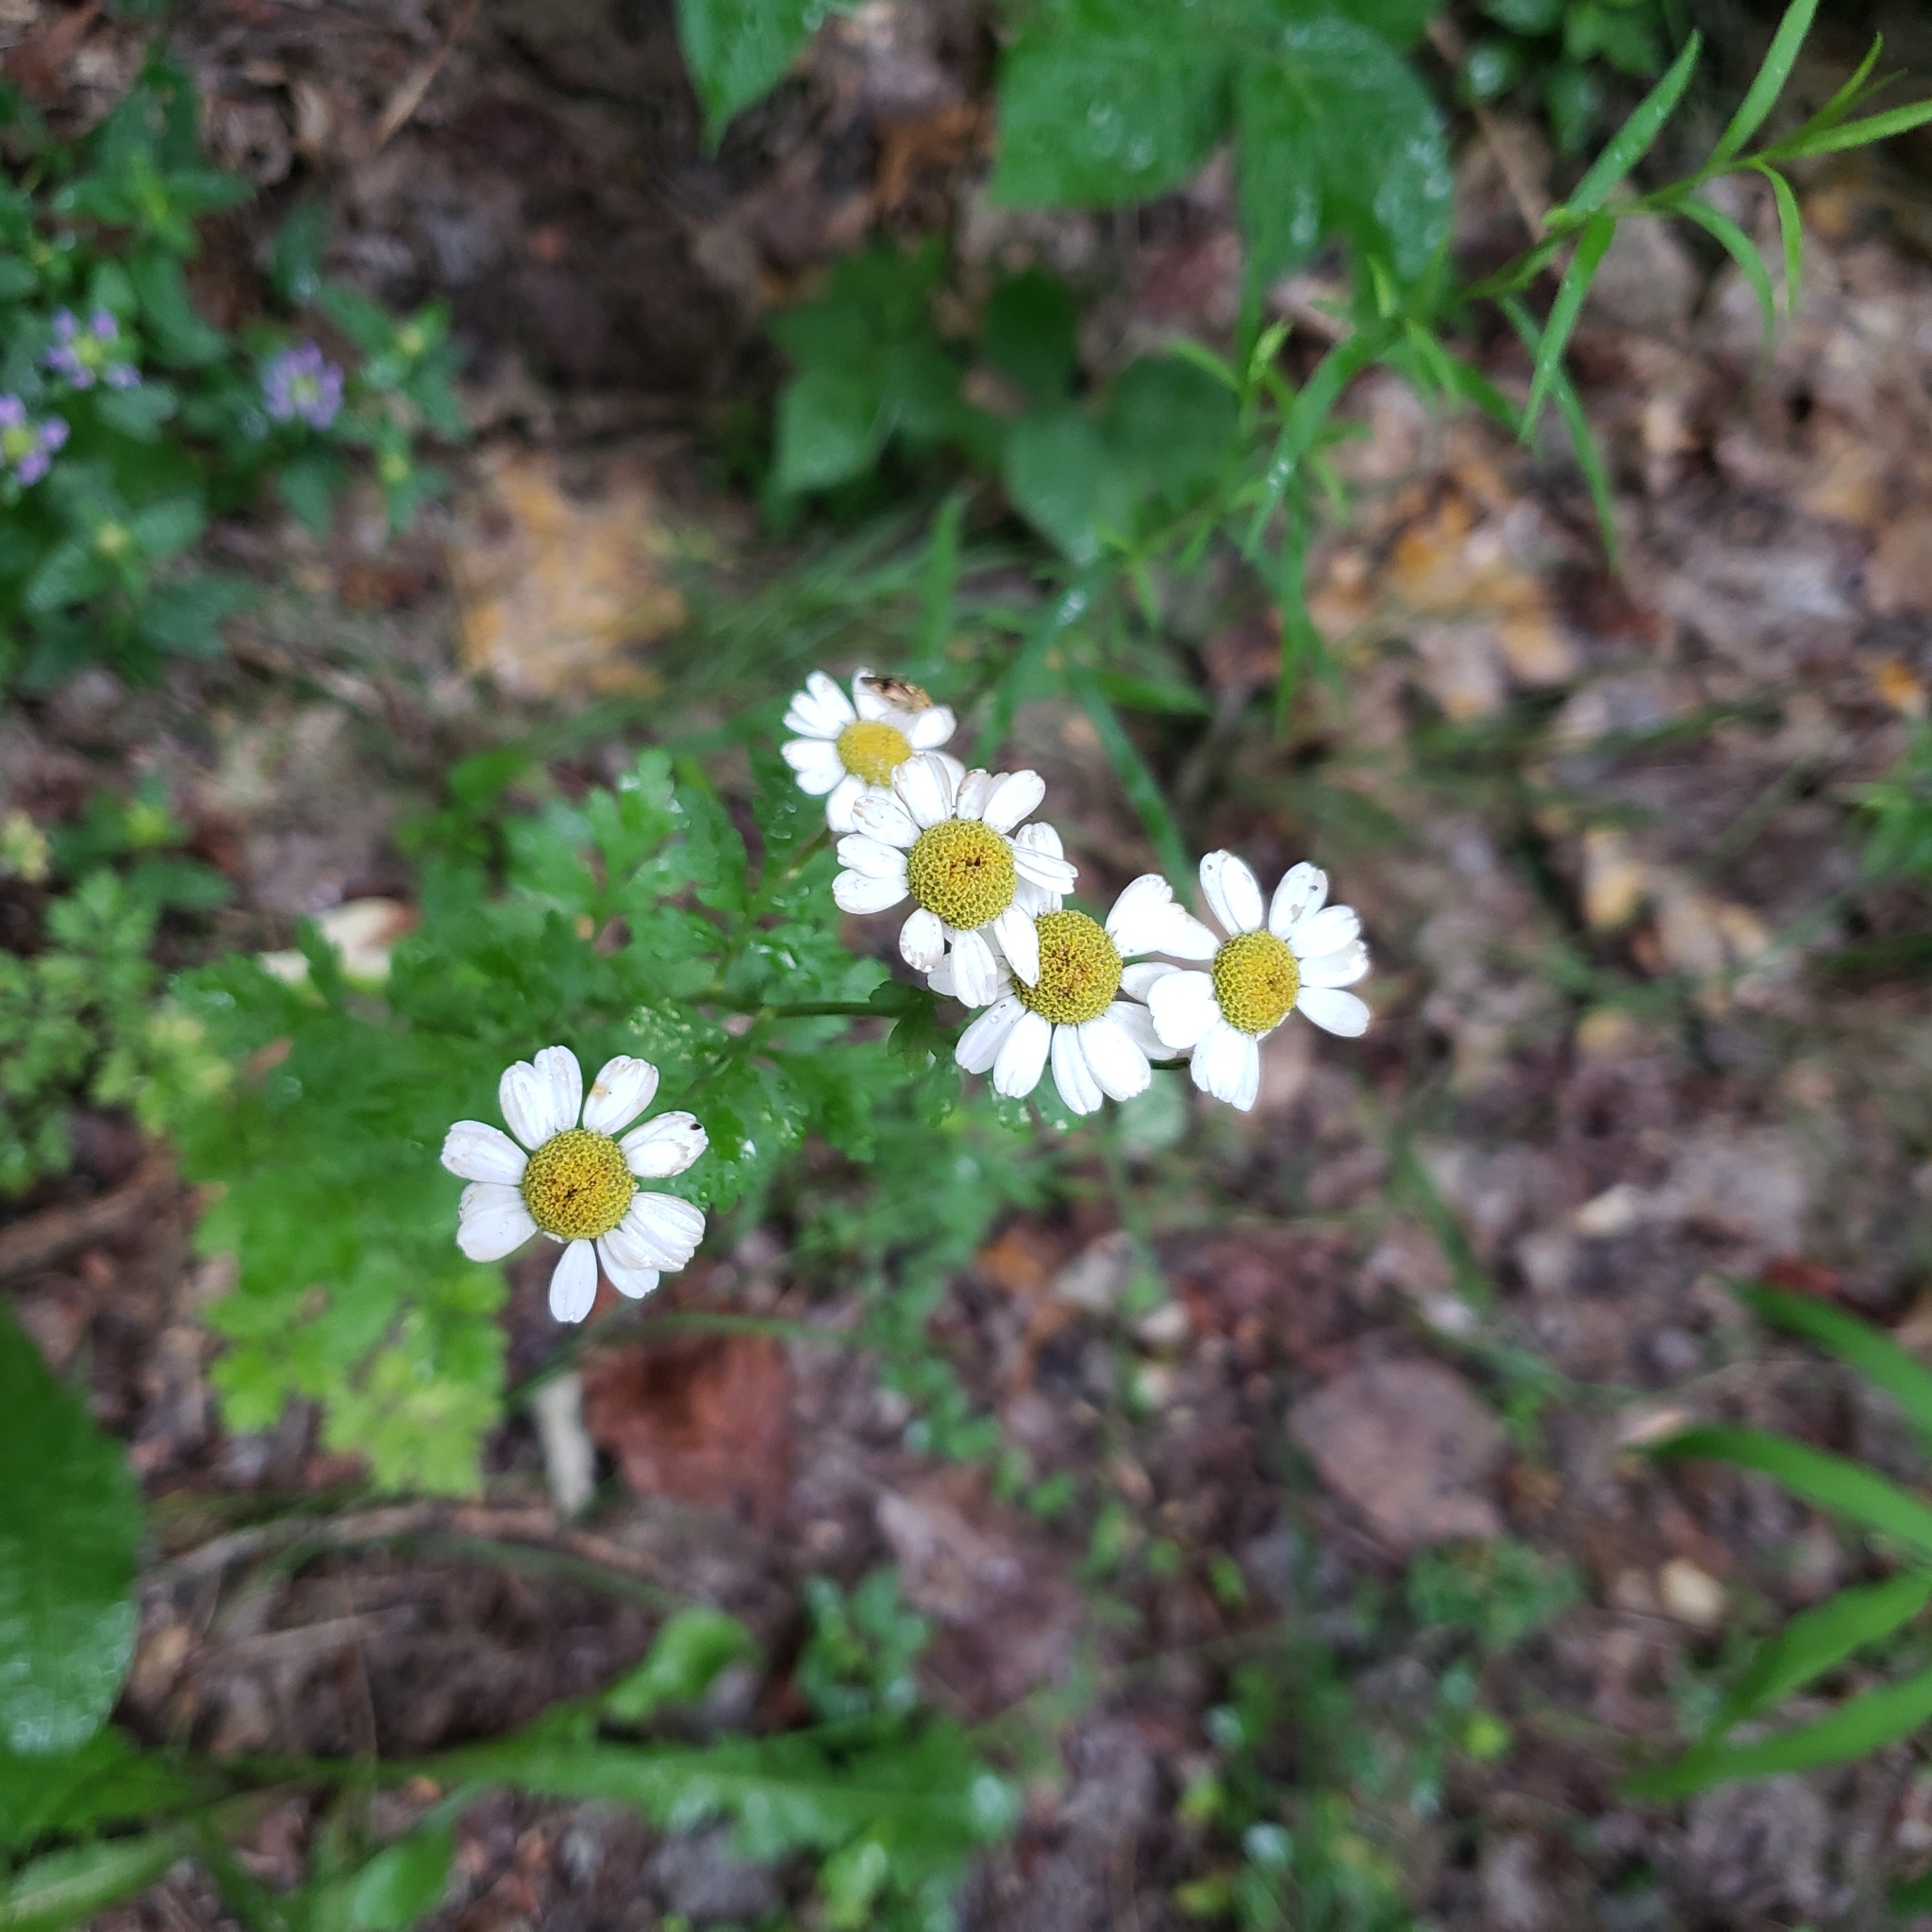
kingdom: Plantae
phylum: Tracheophyta
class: Magnoliopsida
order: Asterales
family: Asteraceae
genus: Tanacetum
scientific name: Tanacetum parthenium
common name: Feverfew
